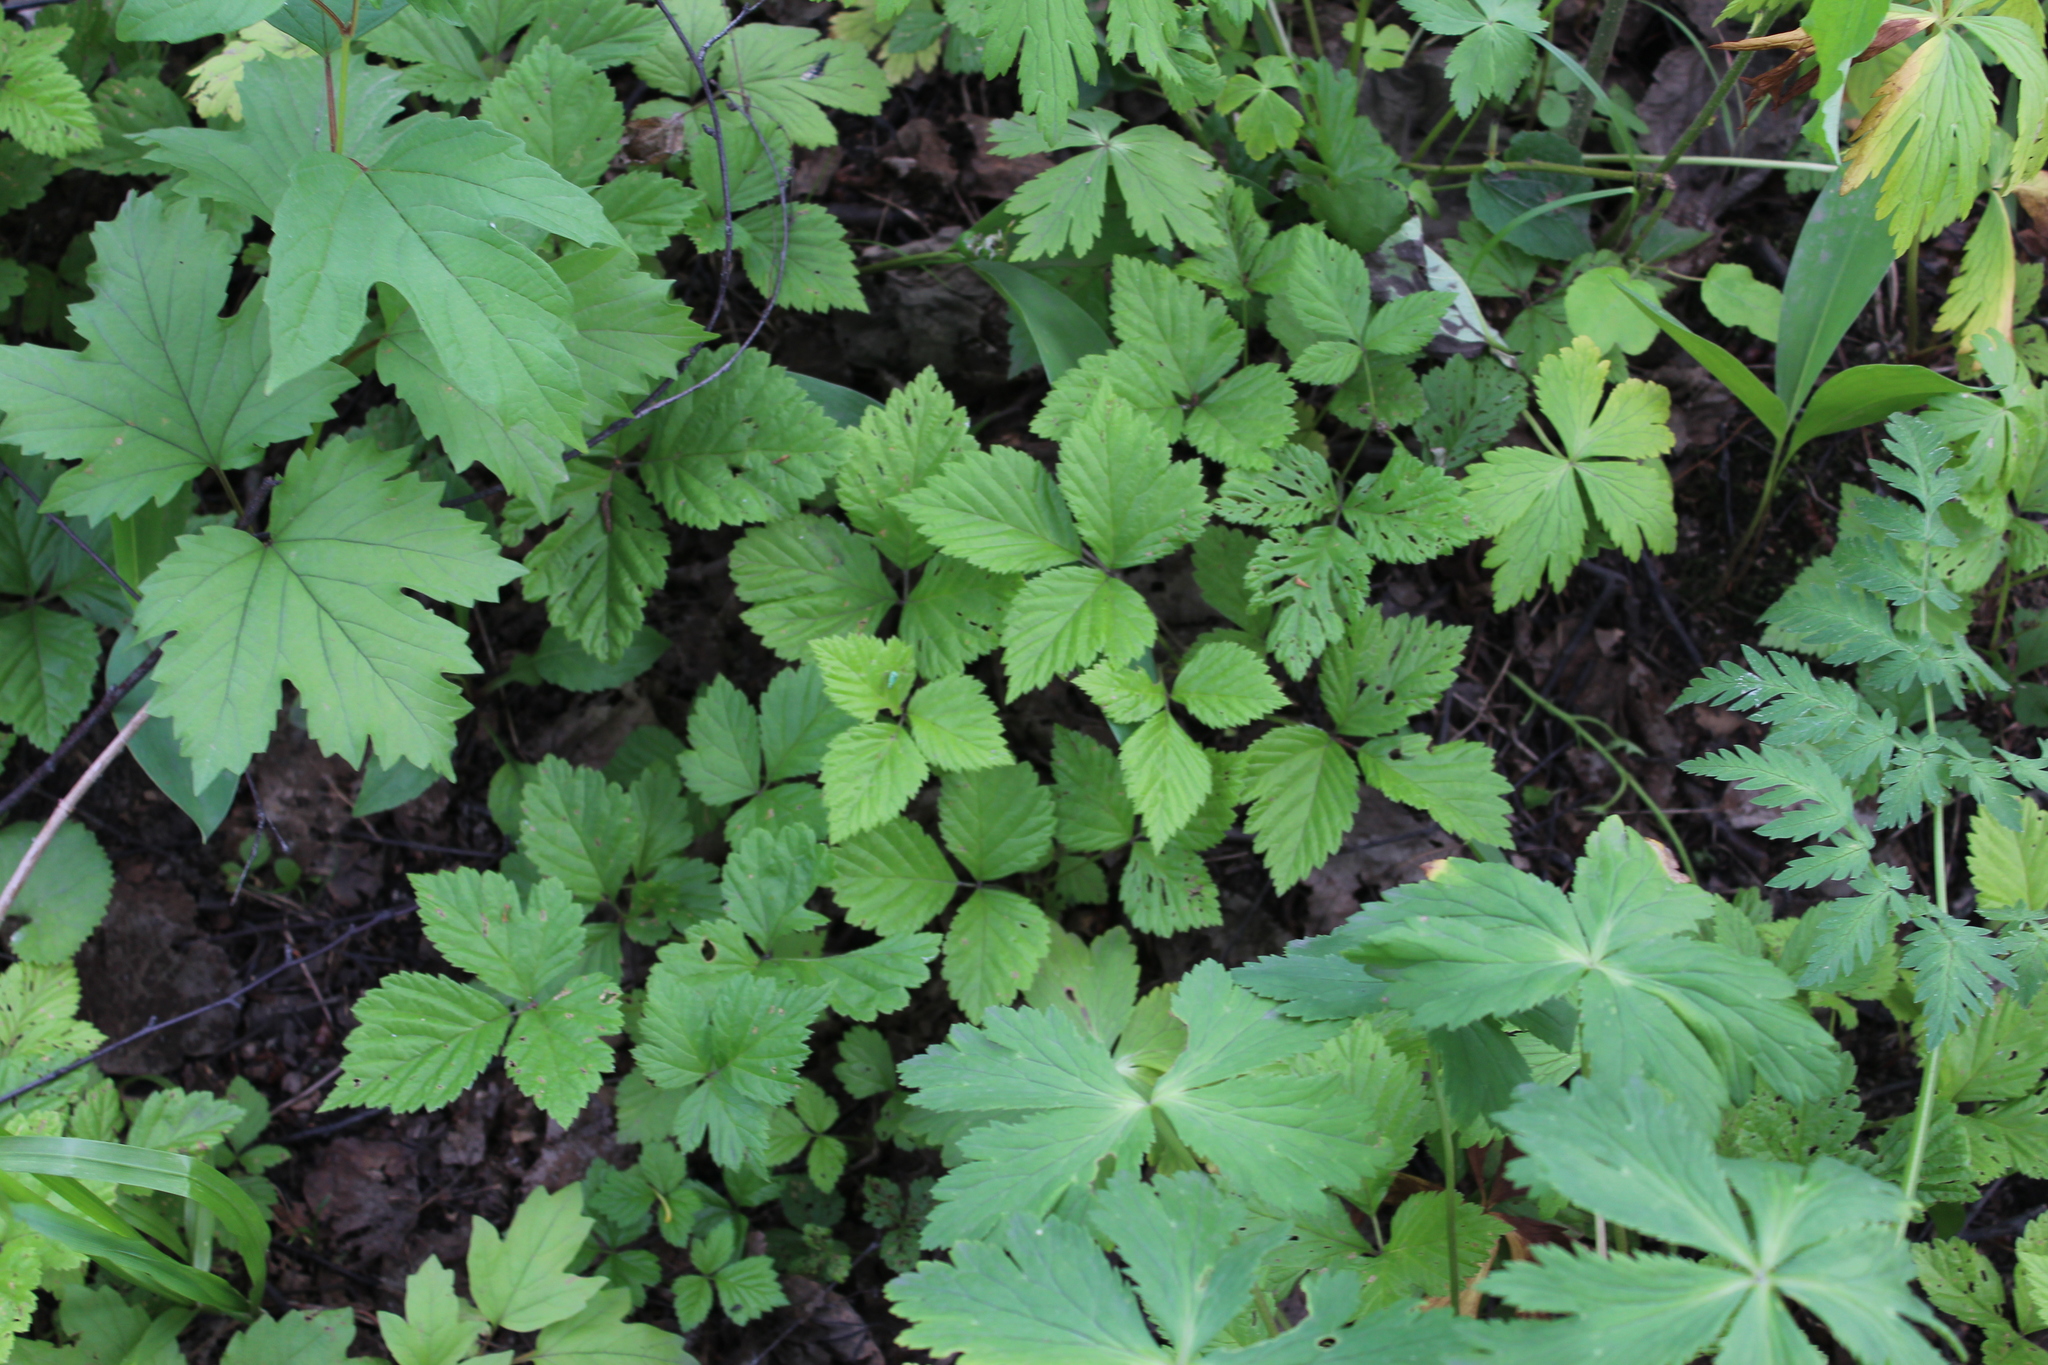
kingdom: Plantae
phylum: Tracheophyta
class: Magnoliopsida
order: Rosales
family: Rosaceae
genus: Rubus
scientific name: Rubus saxatilis
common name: Stone bramble
